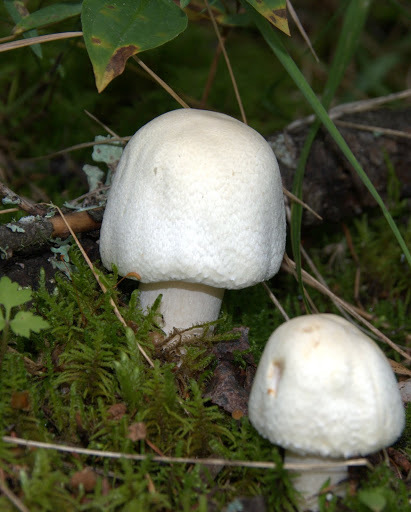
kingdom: Fungi
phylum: Basidiomycota
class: Agaricomycetes
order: Agaricales
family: Agaricaceae
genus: Agaricus
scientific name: Agaricus sylvicola
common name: Wood mushroom
